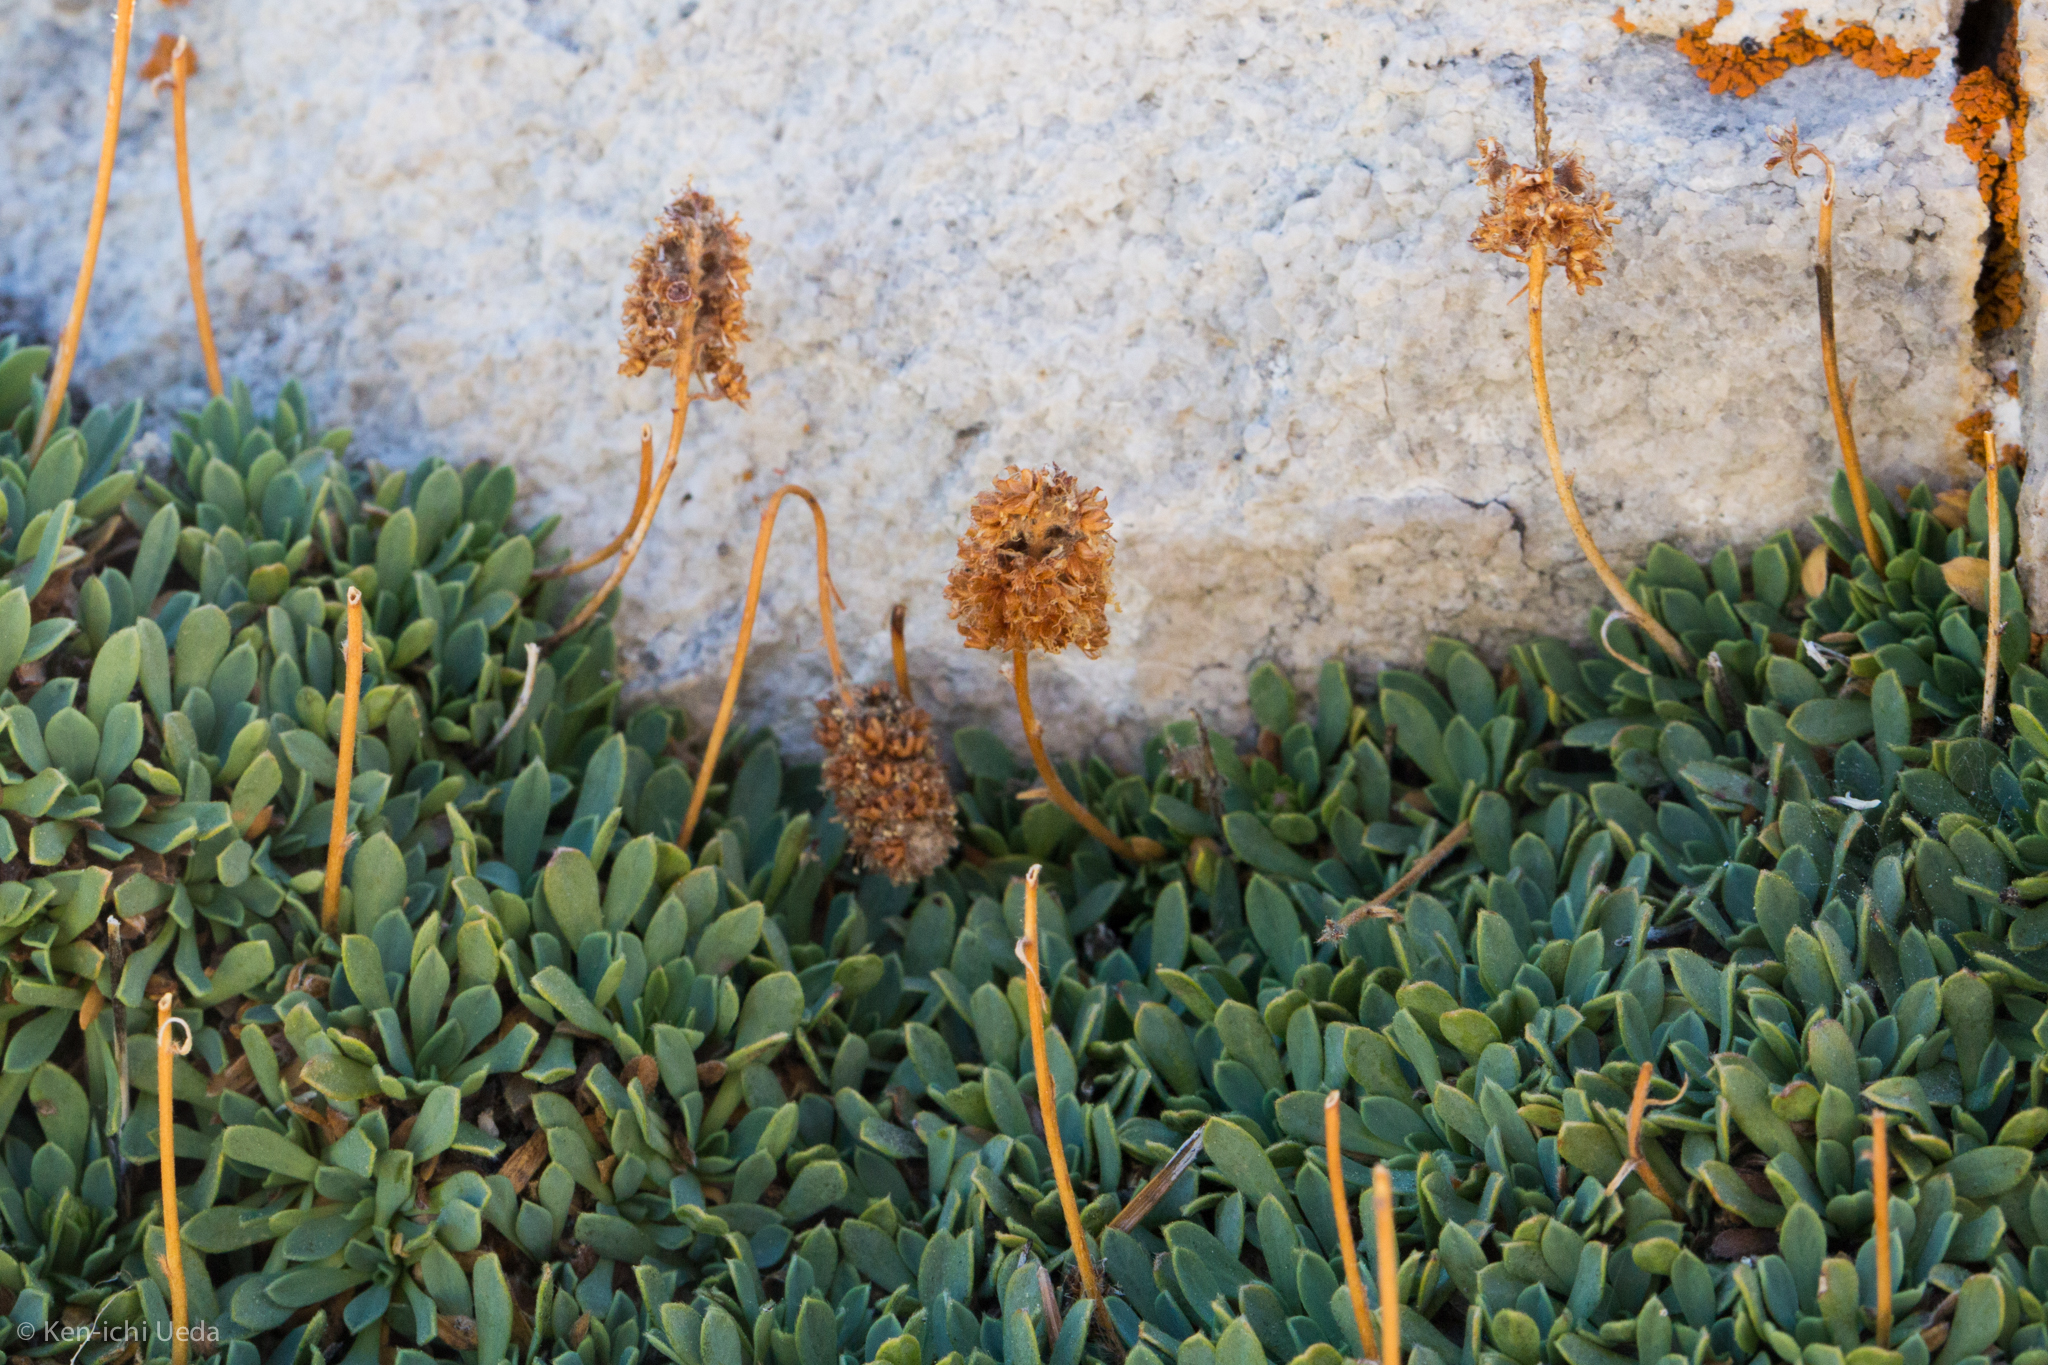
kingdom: Plantae
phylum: Tracheophyta
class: Magnoliopsida
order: Rosales
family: Rosaceae
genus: Petrophytum
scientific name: Petrophytum caespitosum
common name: Mat rockspirea
